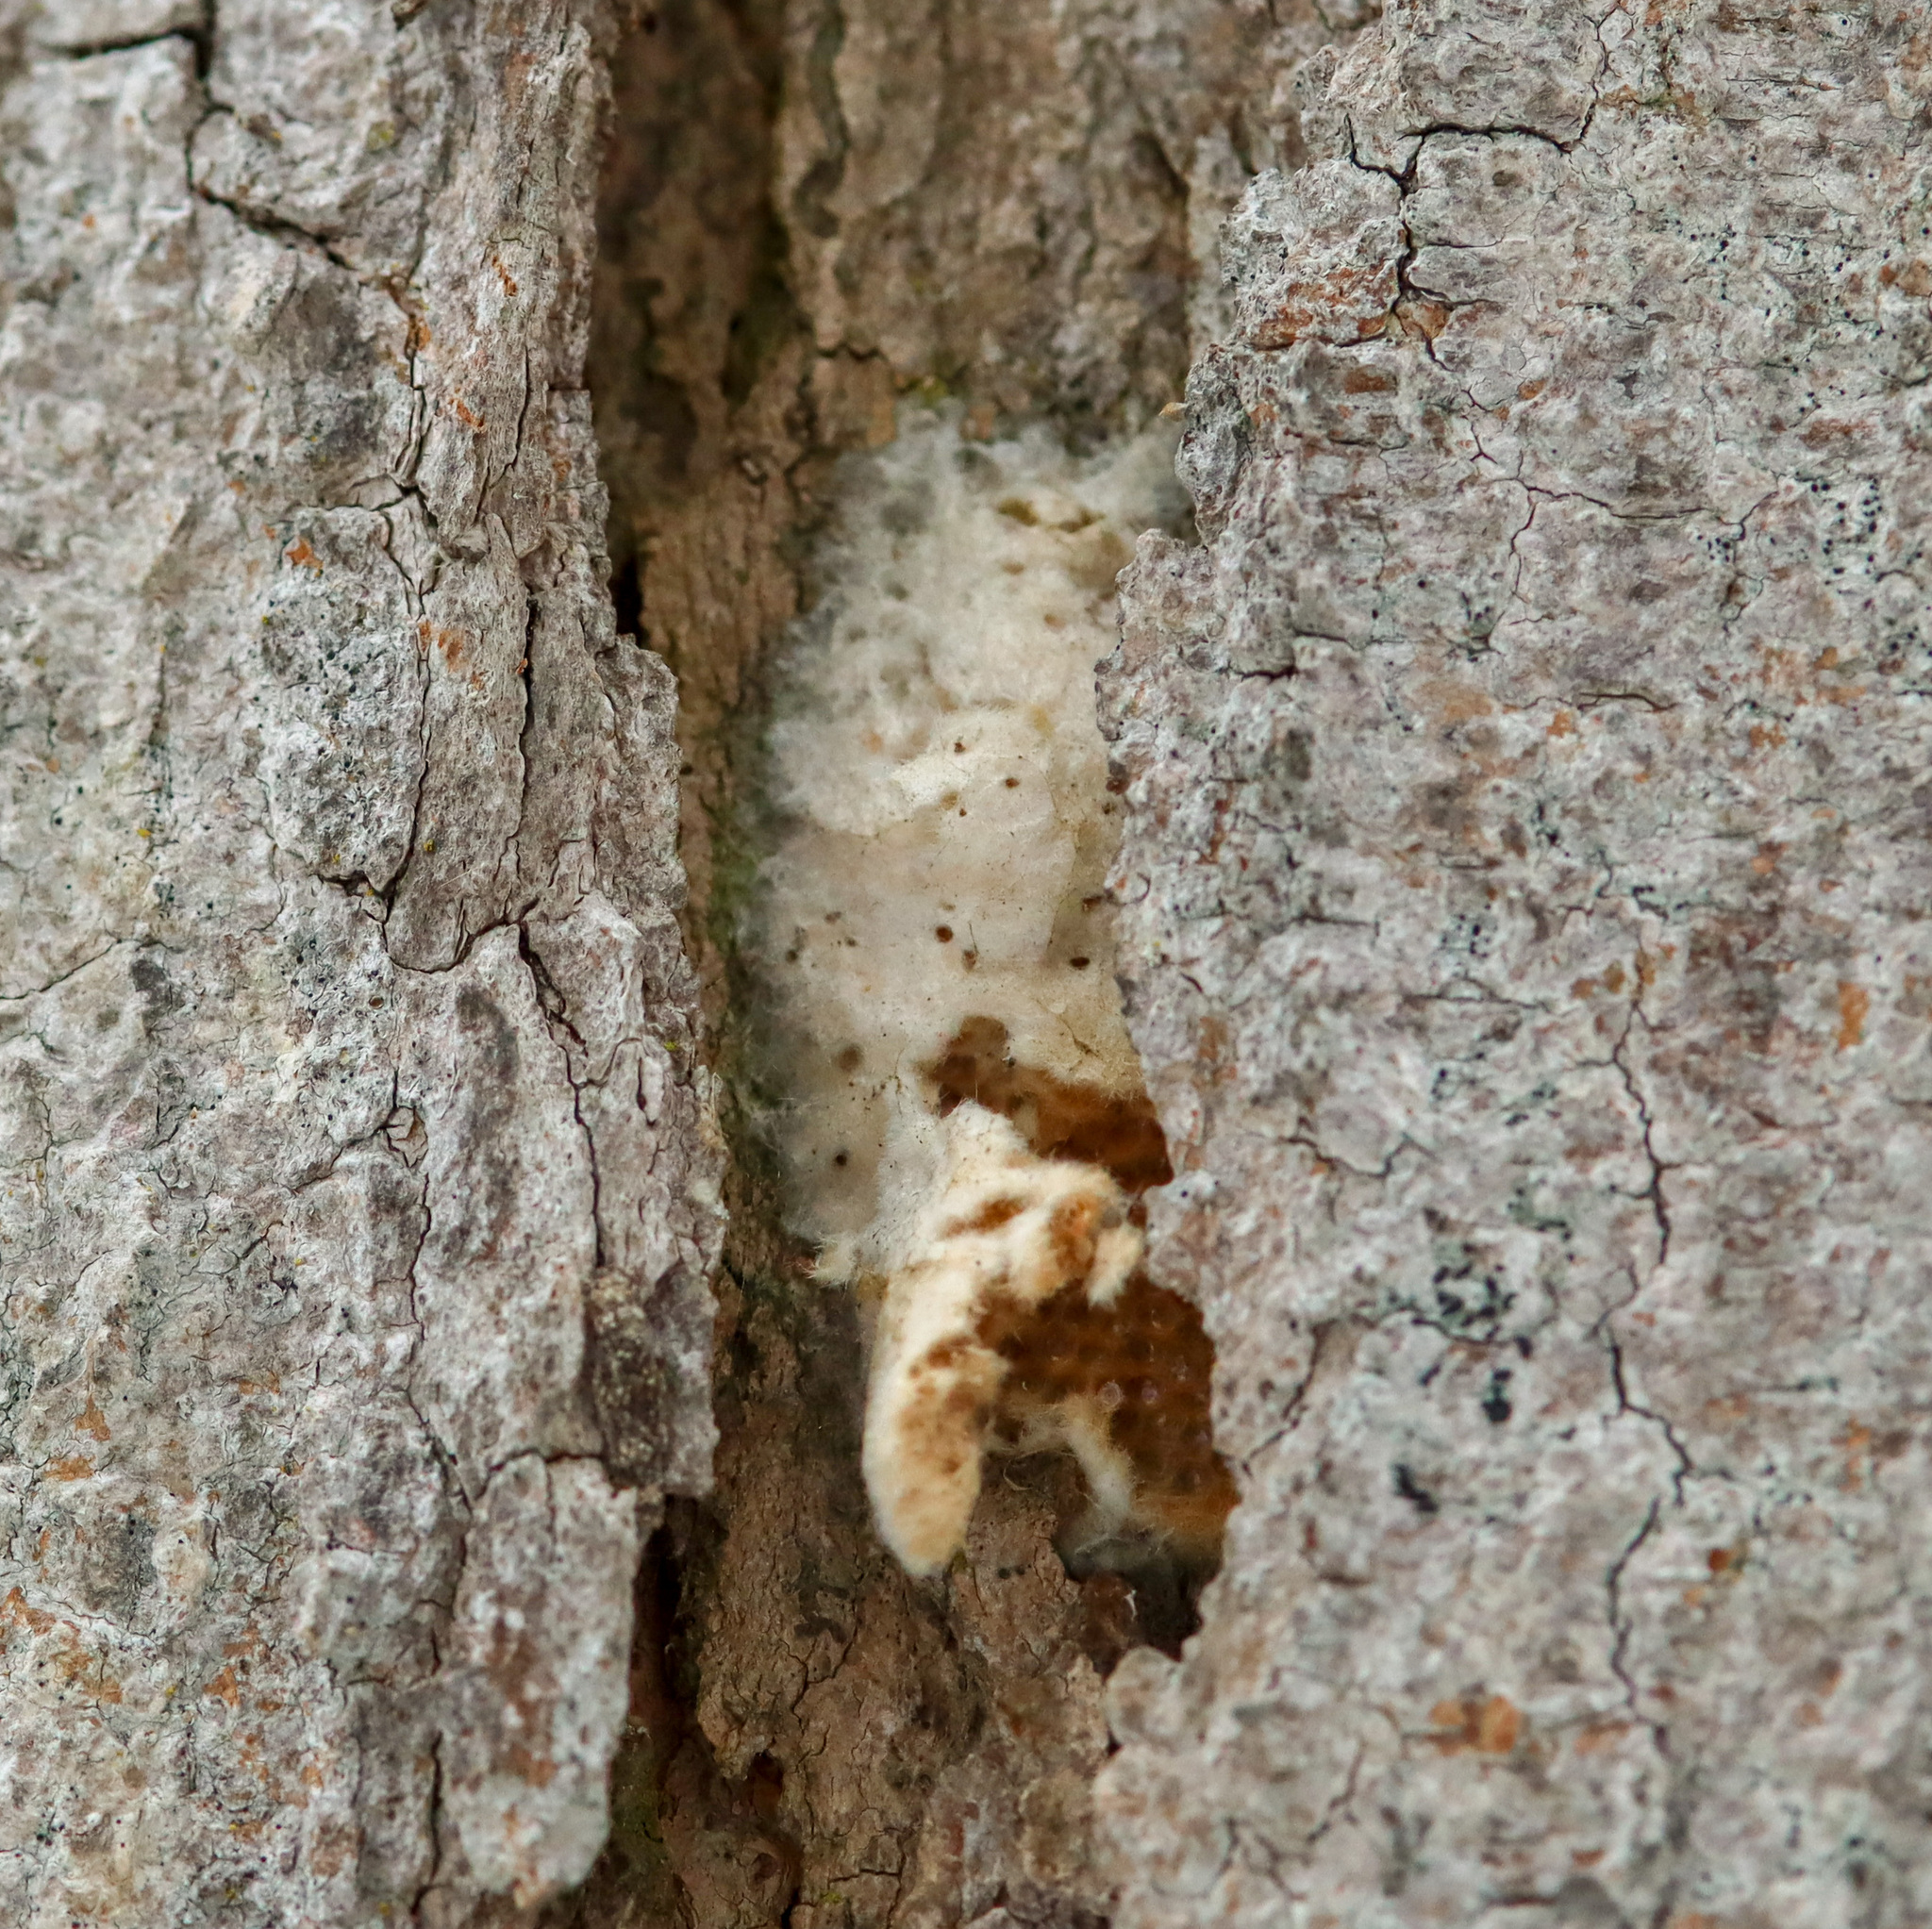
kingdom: Animalia
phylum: Arthropoda
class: Insecta
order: Lepidoptera
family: Erebidae
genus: Lymantria
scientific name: Lymantria dispar
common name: Gypsy moth
